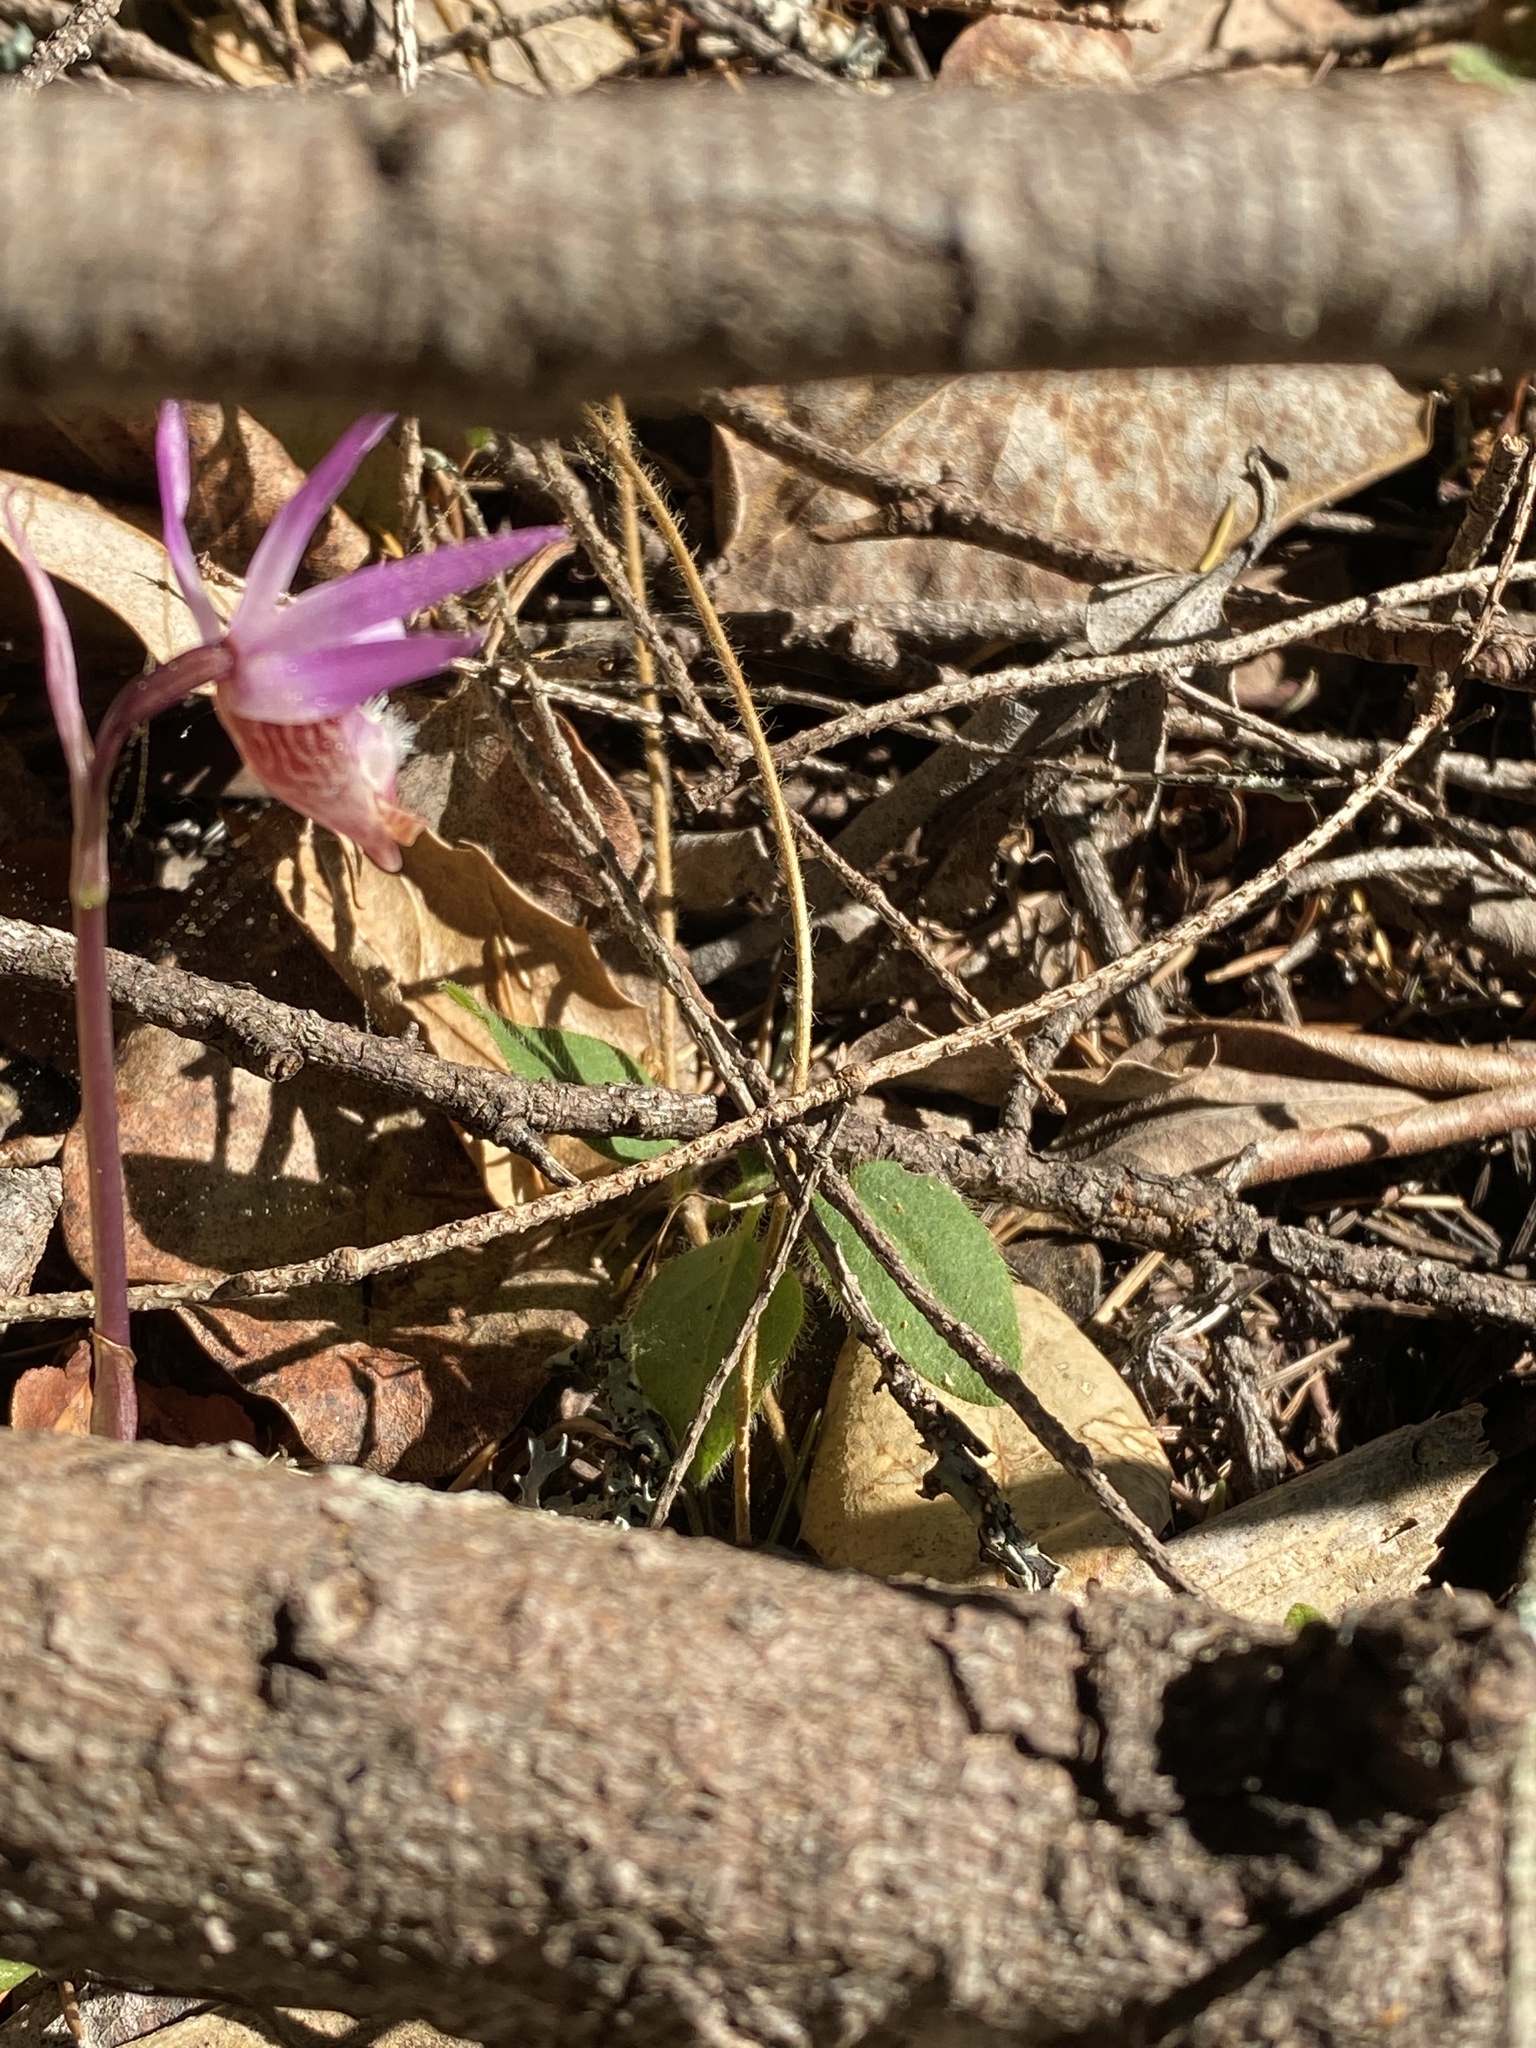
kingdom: Plantae
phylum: Tracheophyta
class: Liliopsida
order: Asparagales
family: Orchidaceae
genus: Calypso
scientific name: Calypso bulbosa
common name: Calypso
